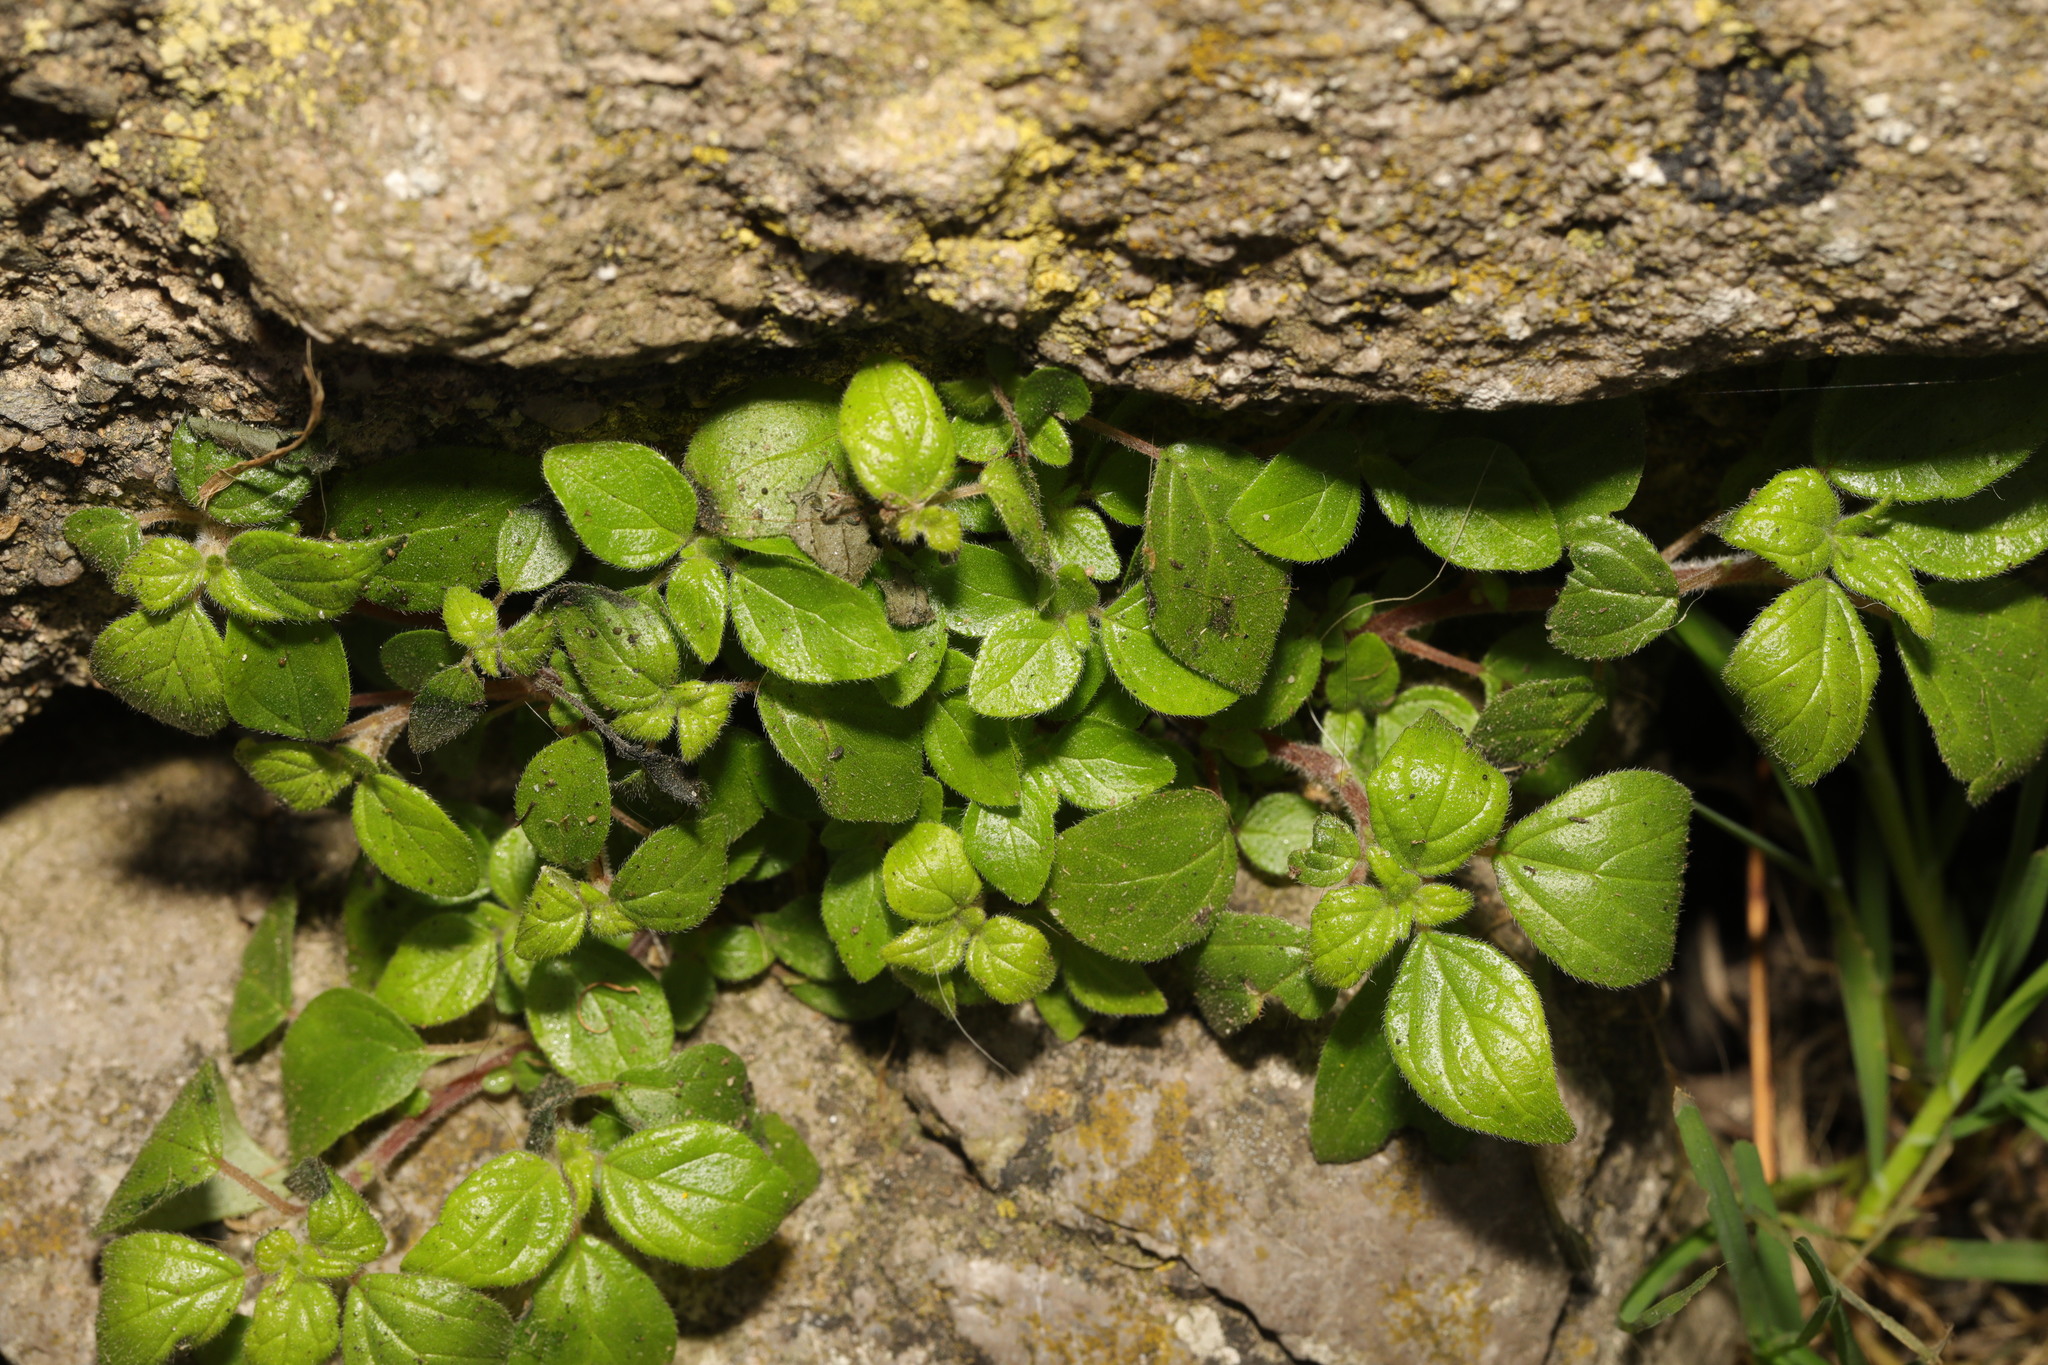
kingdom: Plantae
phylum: Tracheophyta
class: Magnoliopsida
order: Rosales
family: Urticaceae
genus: Parietaria
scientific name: Parietaria judaica
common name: Pellitory-of-the-wall
